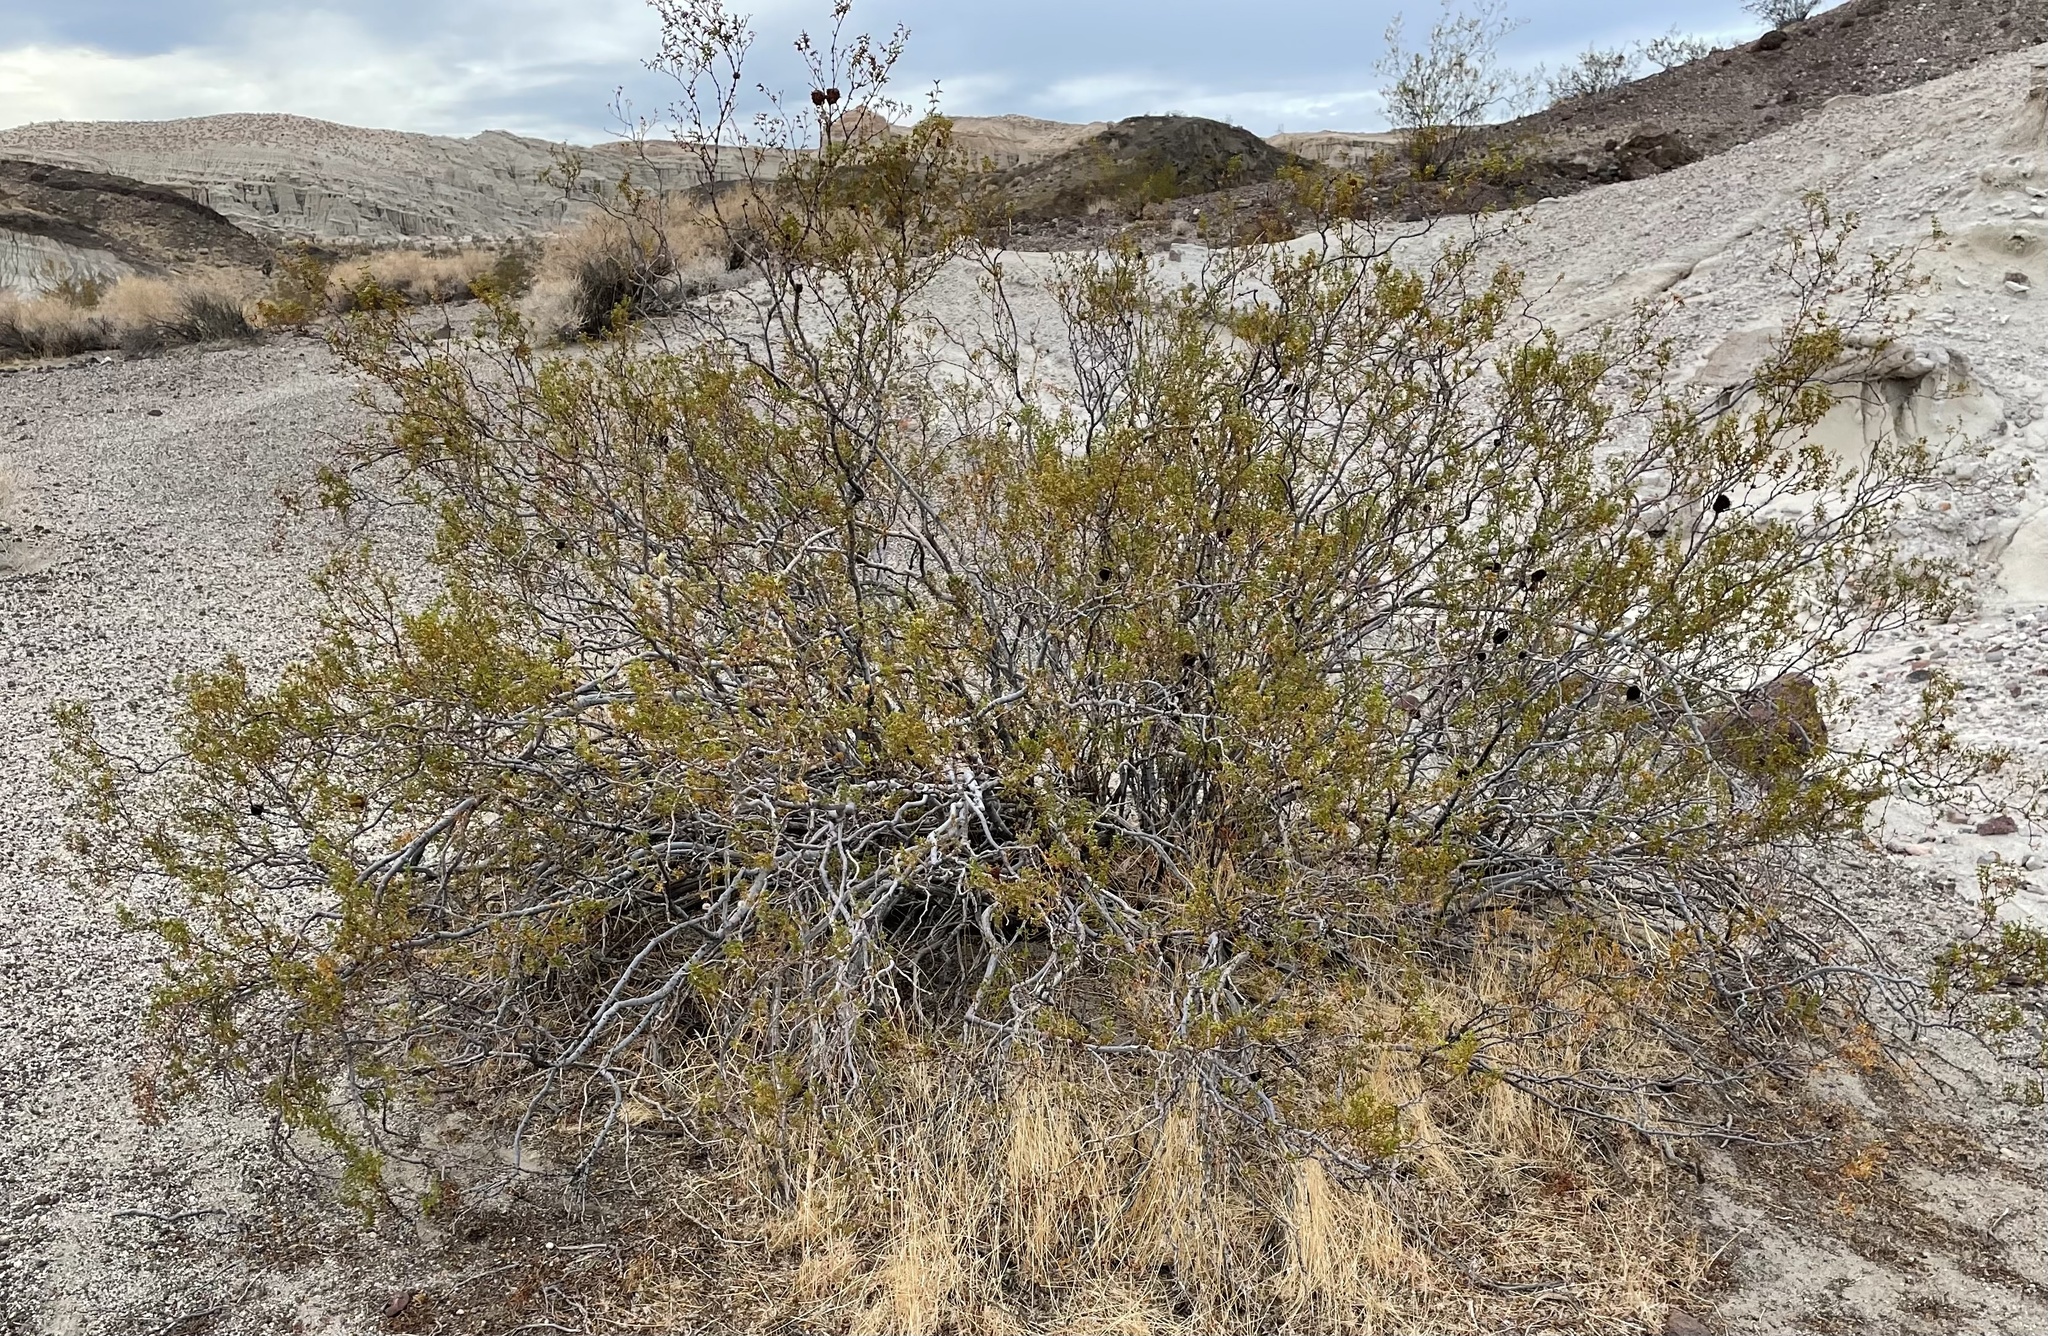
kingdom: Animalia
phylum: Arthropoda
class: Insecta
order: Diptera
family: Cecidomyiidae
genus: Asphondylia
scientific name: Asphondylia rosetta
